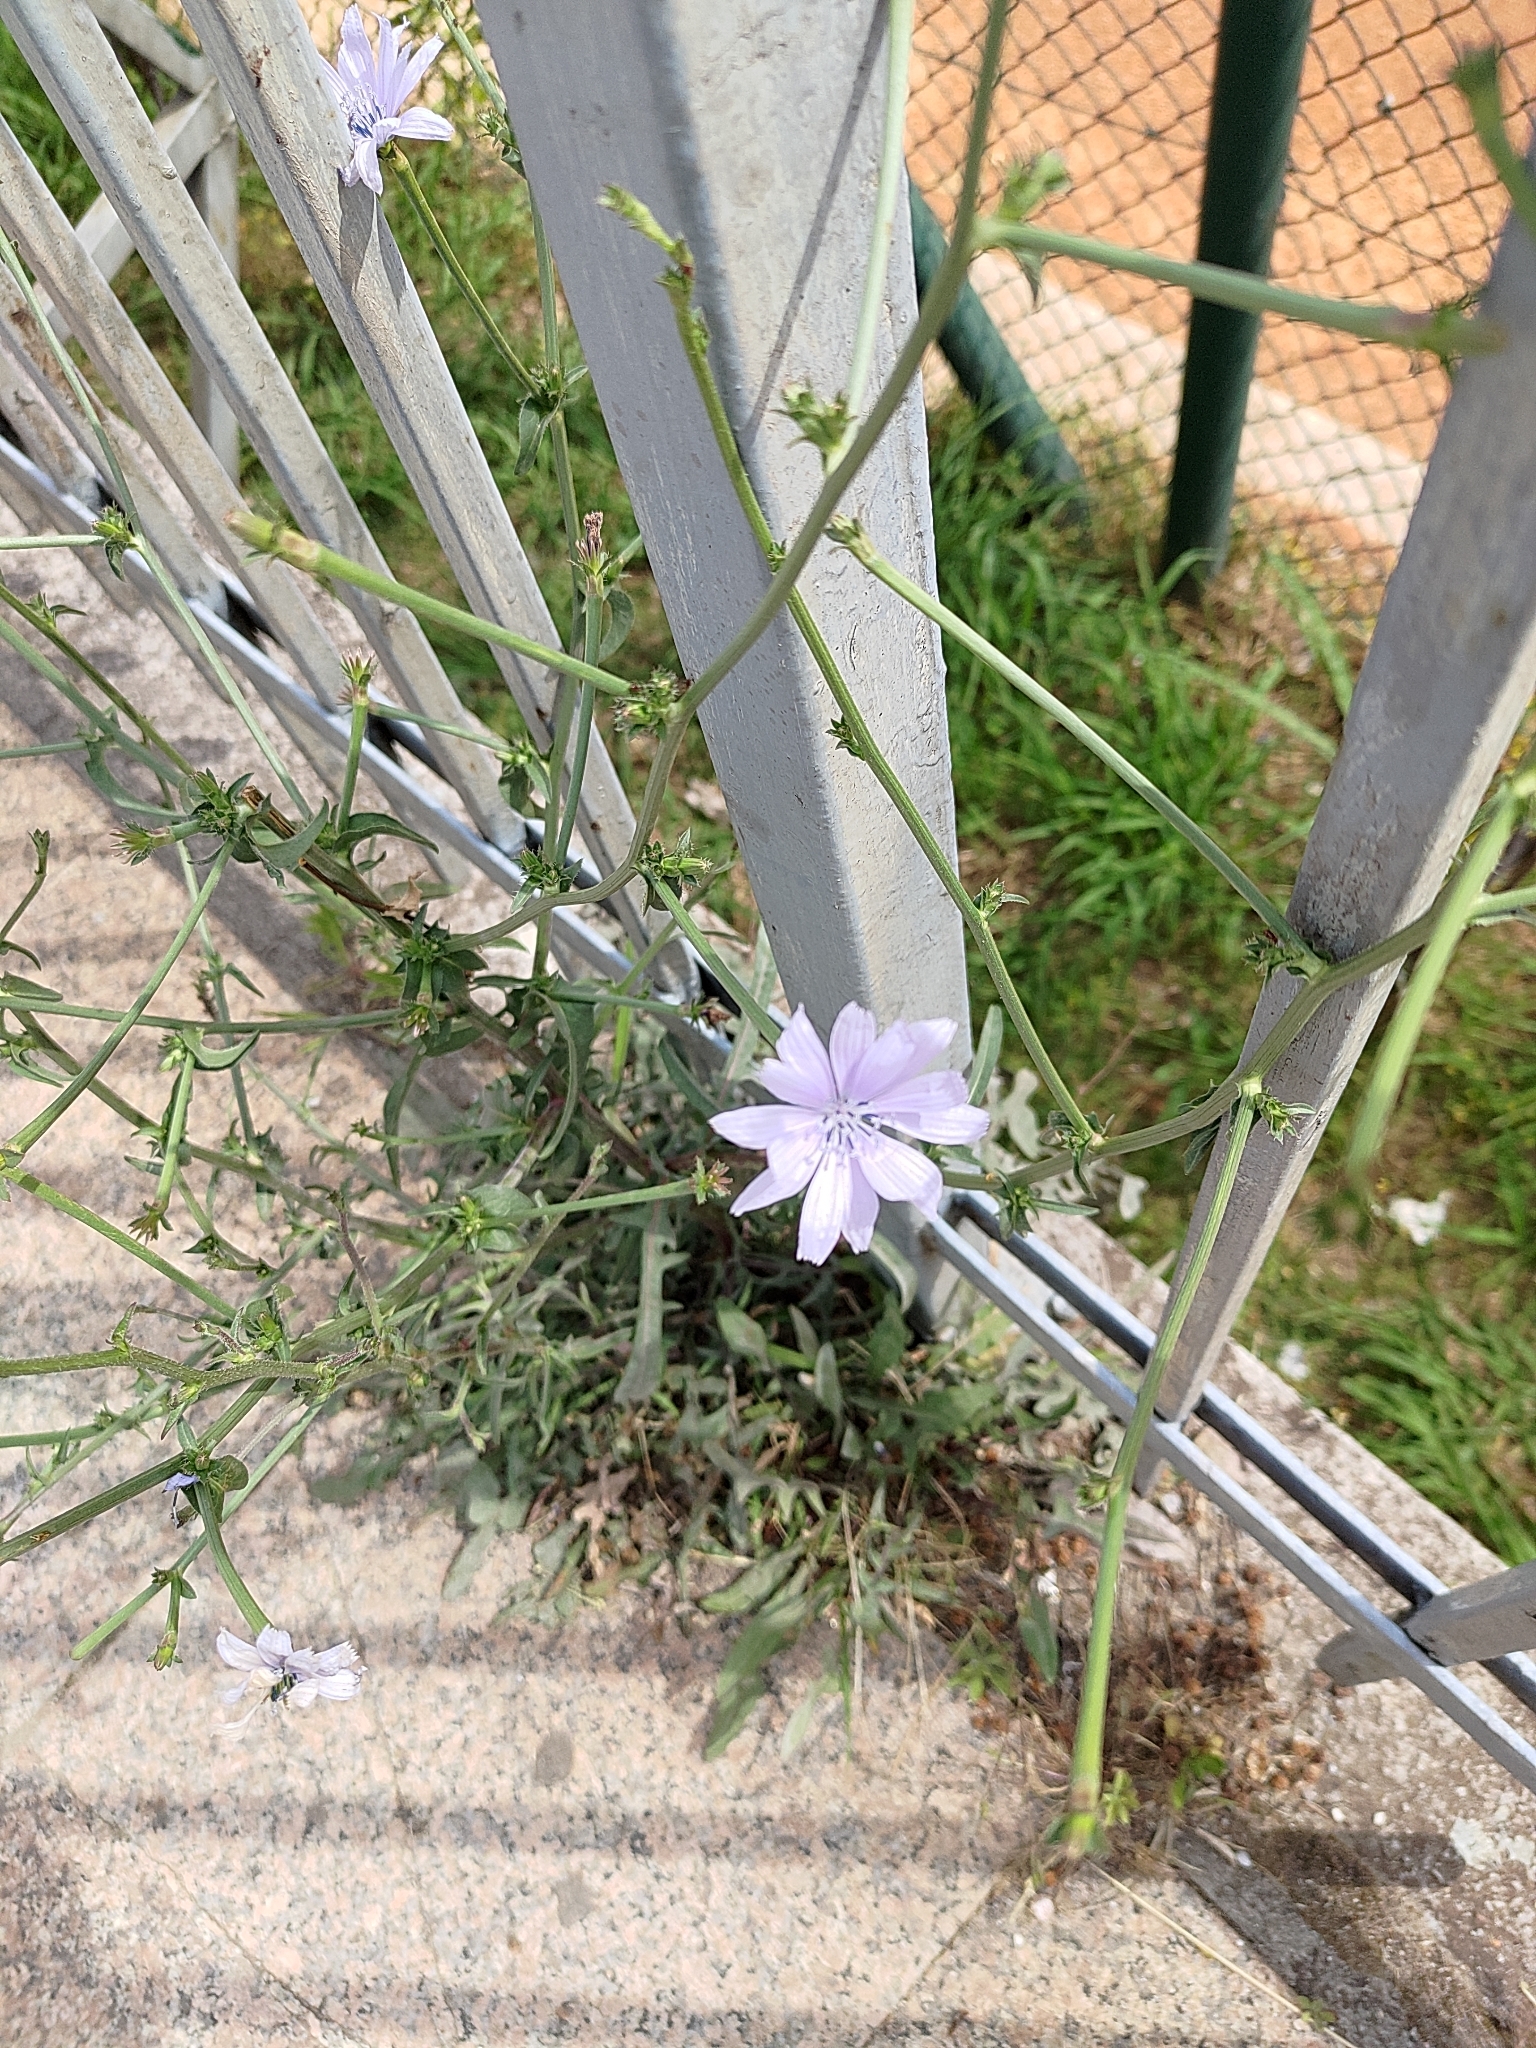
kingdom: Plantae
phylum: Tracheophyta
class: Magnoliopsida
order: Asterales
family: Asteraceae
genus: Cichorium
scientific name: Cichorium intybus
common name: Chicory
